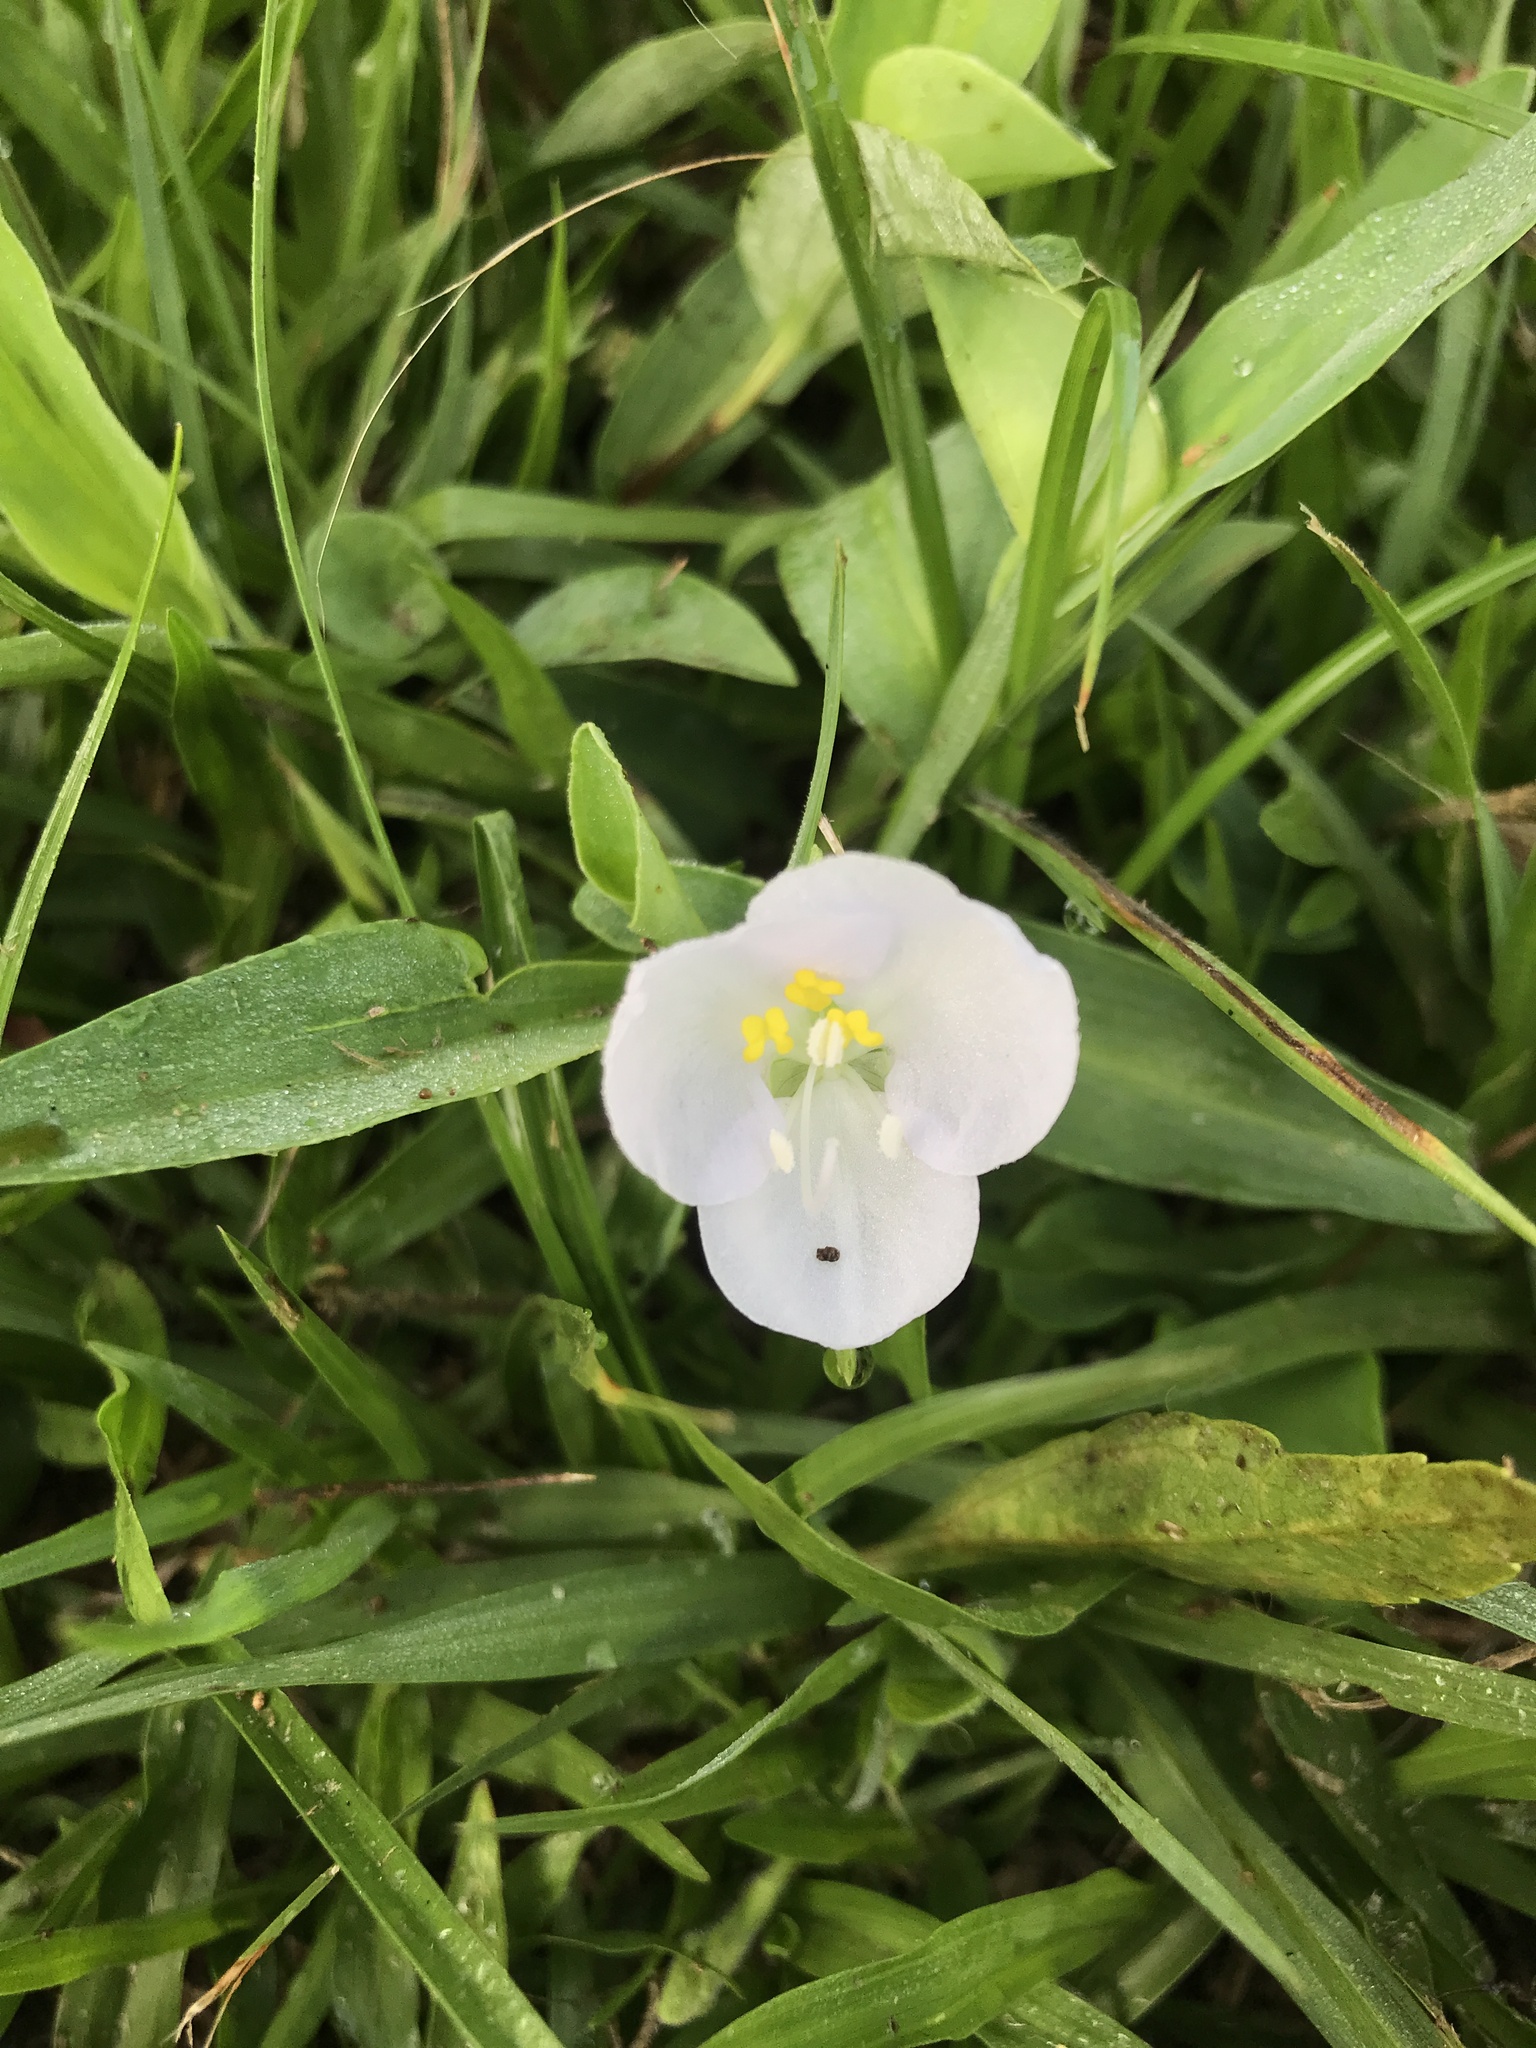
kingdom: Plantae
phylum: Tracheophyta
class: Liliopsida
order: Commelinales
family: Commelinaceae
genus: Commelina
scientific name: Commelina platyphylla
